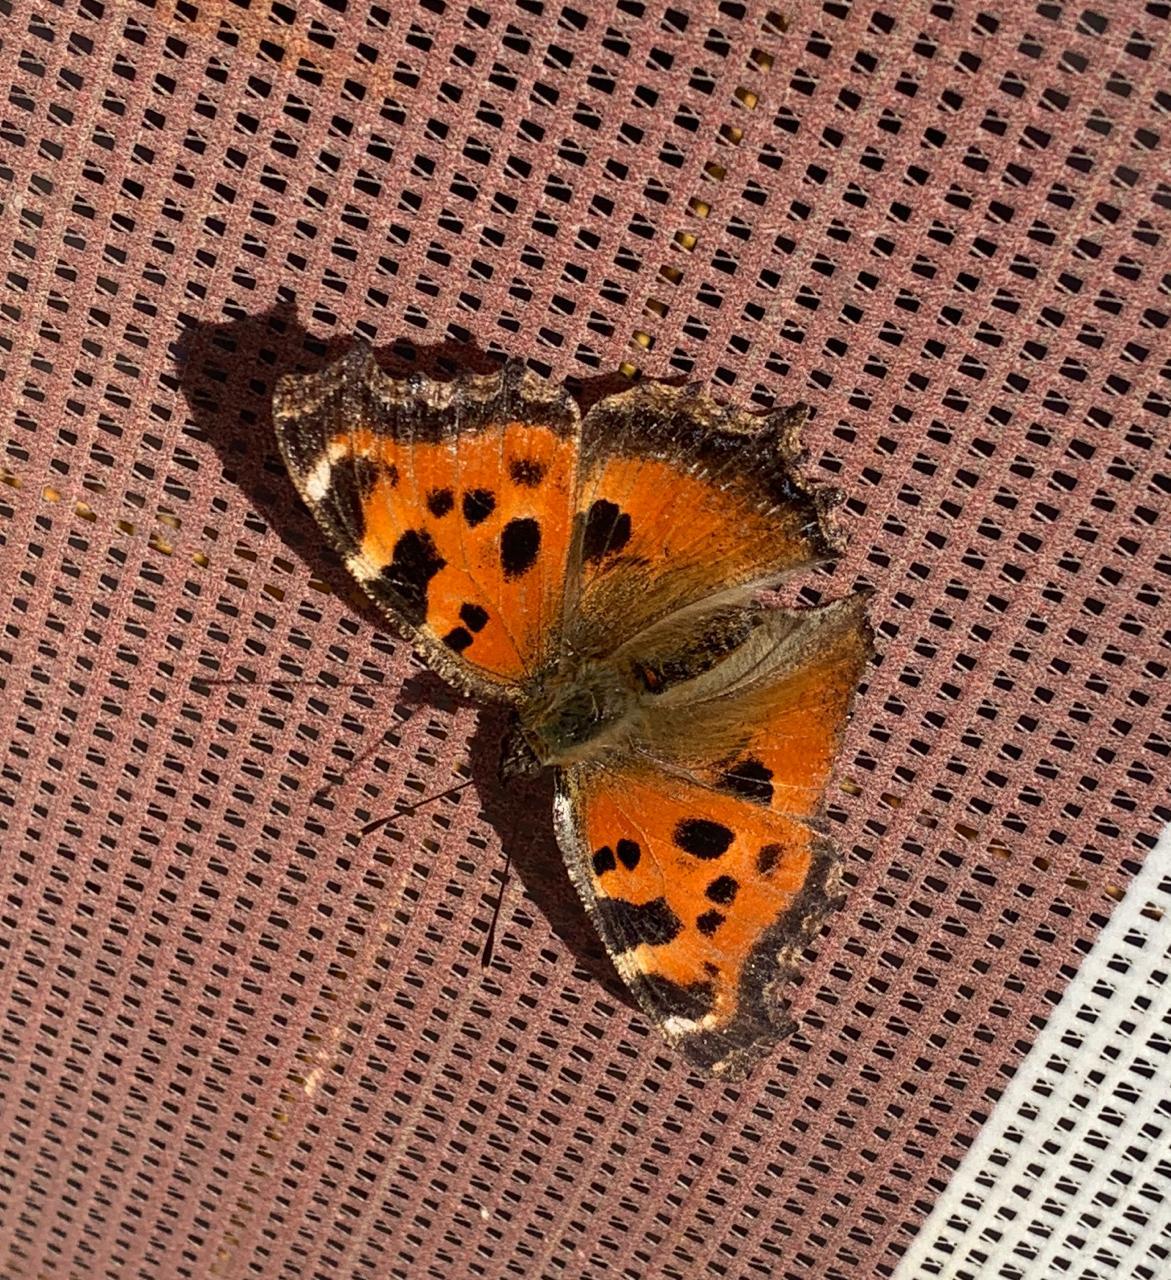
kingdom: Animalia
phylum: Arthropoda
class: Insecta
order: Lepidoptera
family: Nymphalidae
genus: Nymphalis
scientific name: Nymphalis xanthomelas
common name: Scarce tortoiseshell
